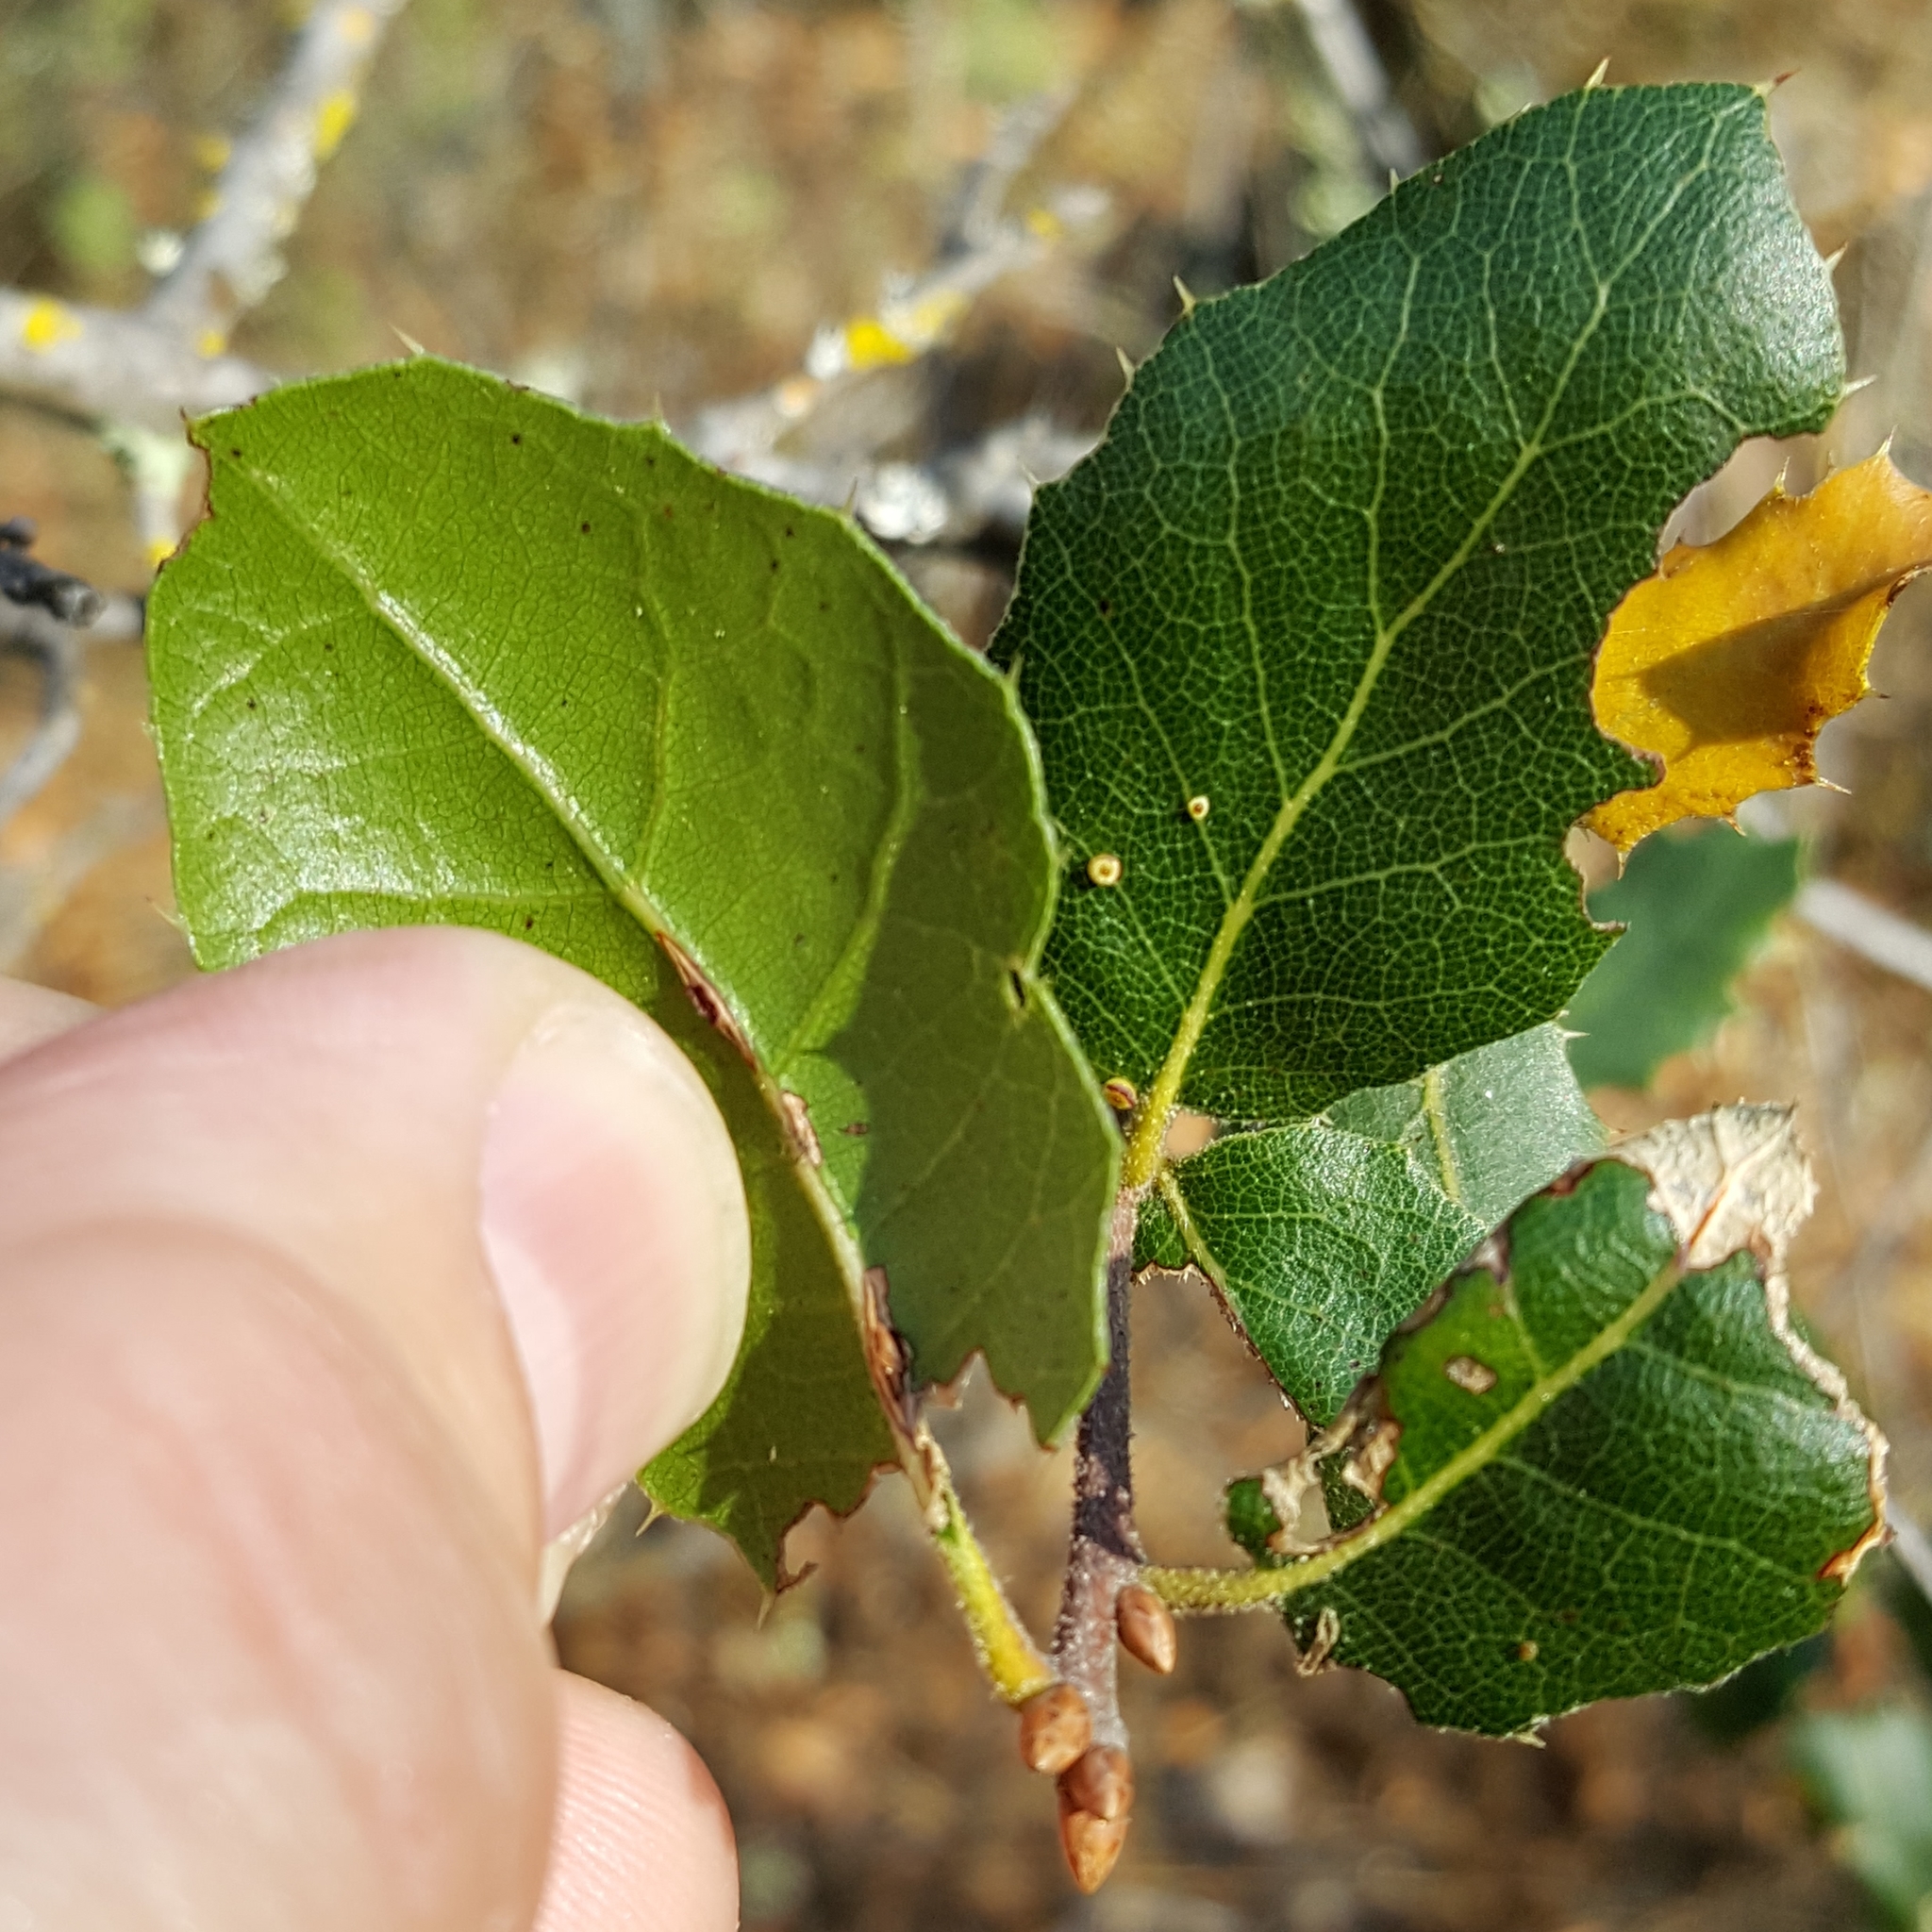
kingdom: Plantae
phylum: Tracheophyta
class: Magnoliopsida
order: Fagales
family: Fagaceae
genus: Quercus
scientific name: Quercus wislizeni
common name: Interior live oak
